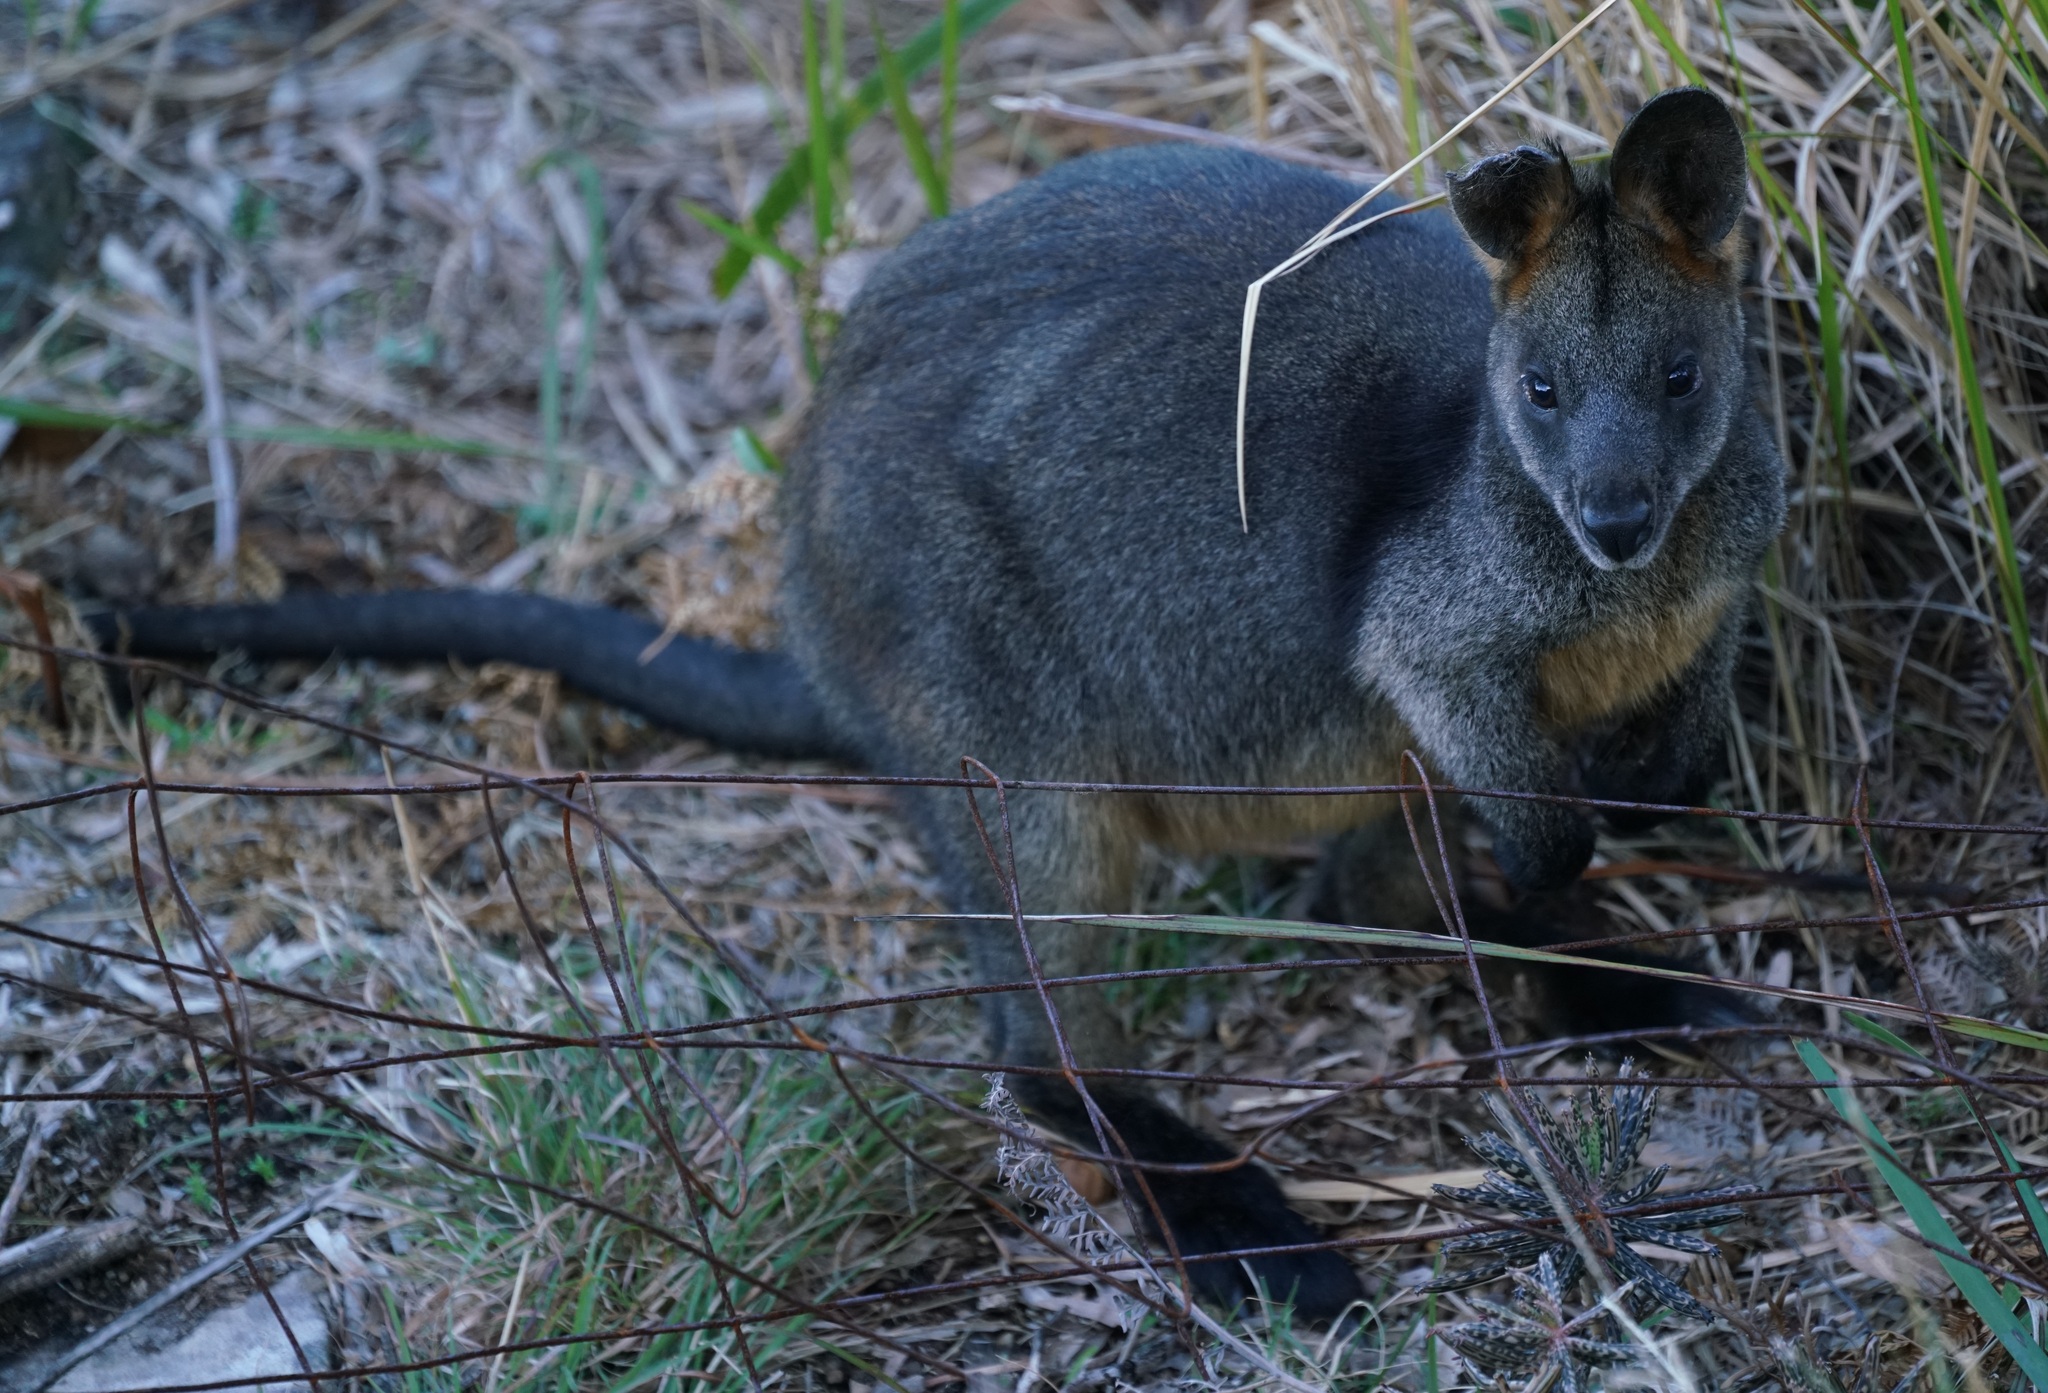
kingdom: Animalia
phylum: Chordata
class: Mammalia
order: Diprotodontia
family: Macropodidae
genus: Wallabia
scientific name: Wallabia bicolor
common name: Swamp wallaby
